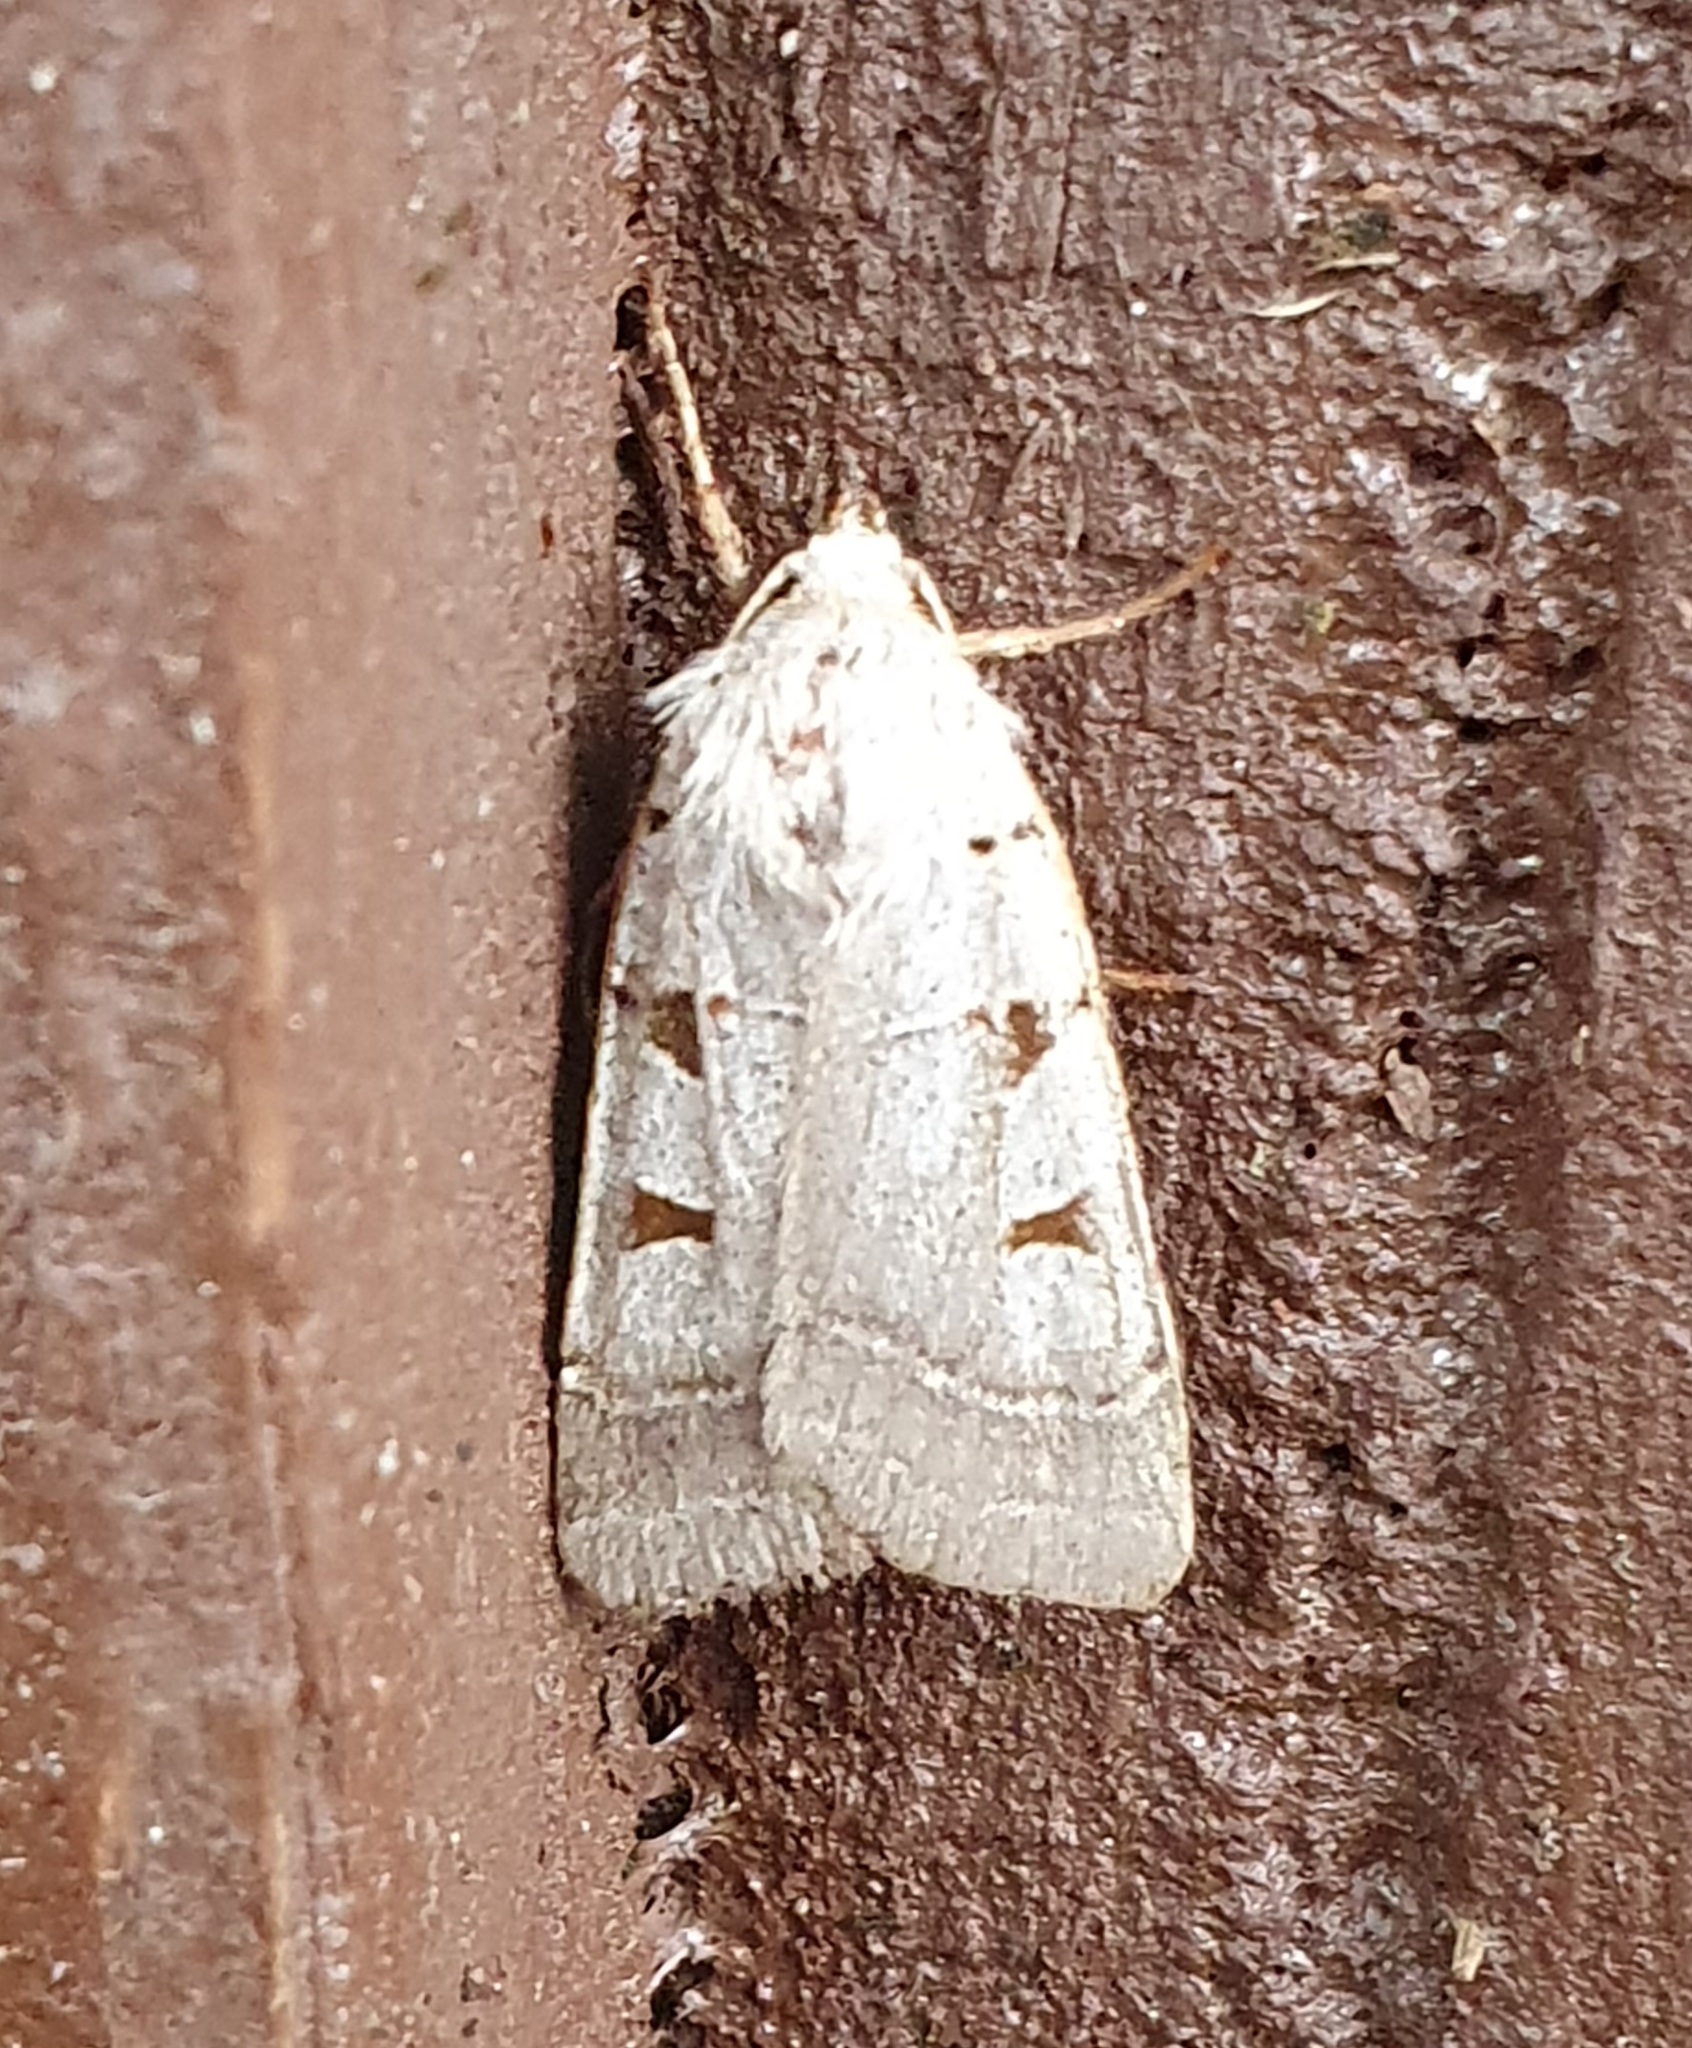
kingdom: Animalia
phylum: Arthropoda
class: Insecta
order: Lepidoptera
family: Noctuidae
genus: Eugnorisma
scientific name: Eugnorisma glareosa
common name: Autumnal rustic
